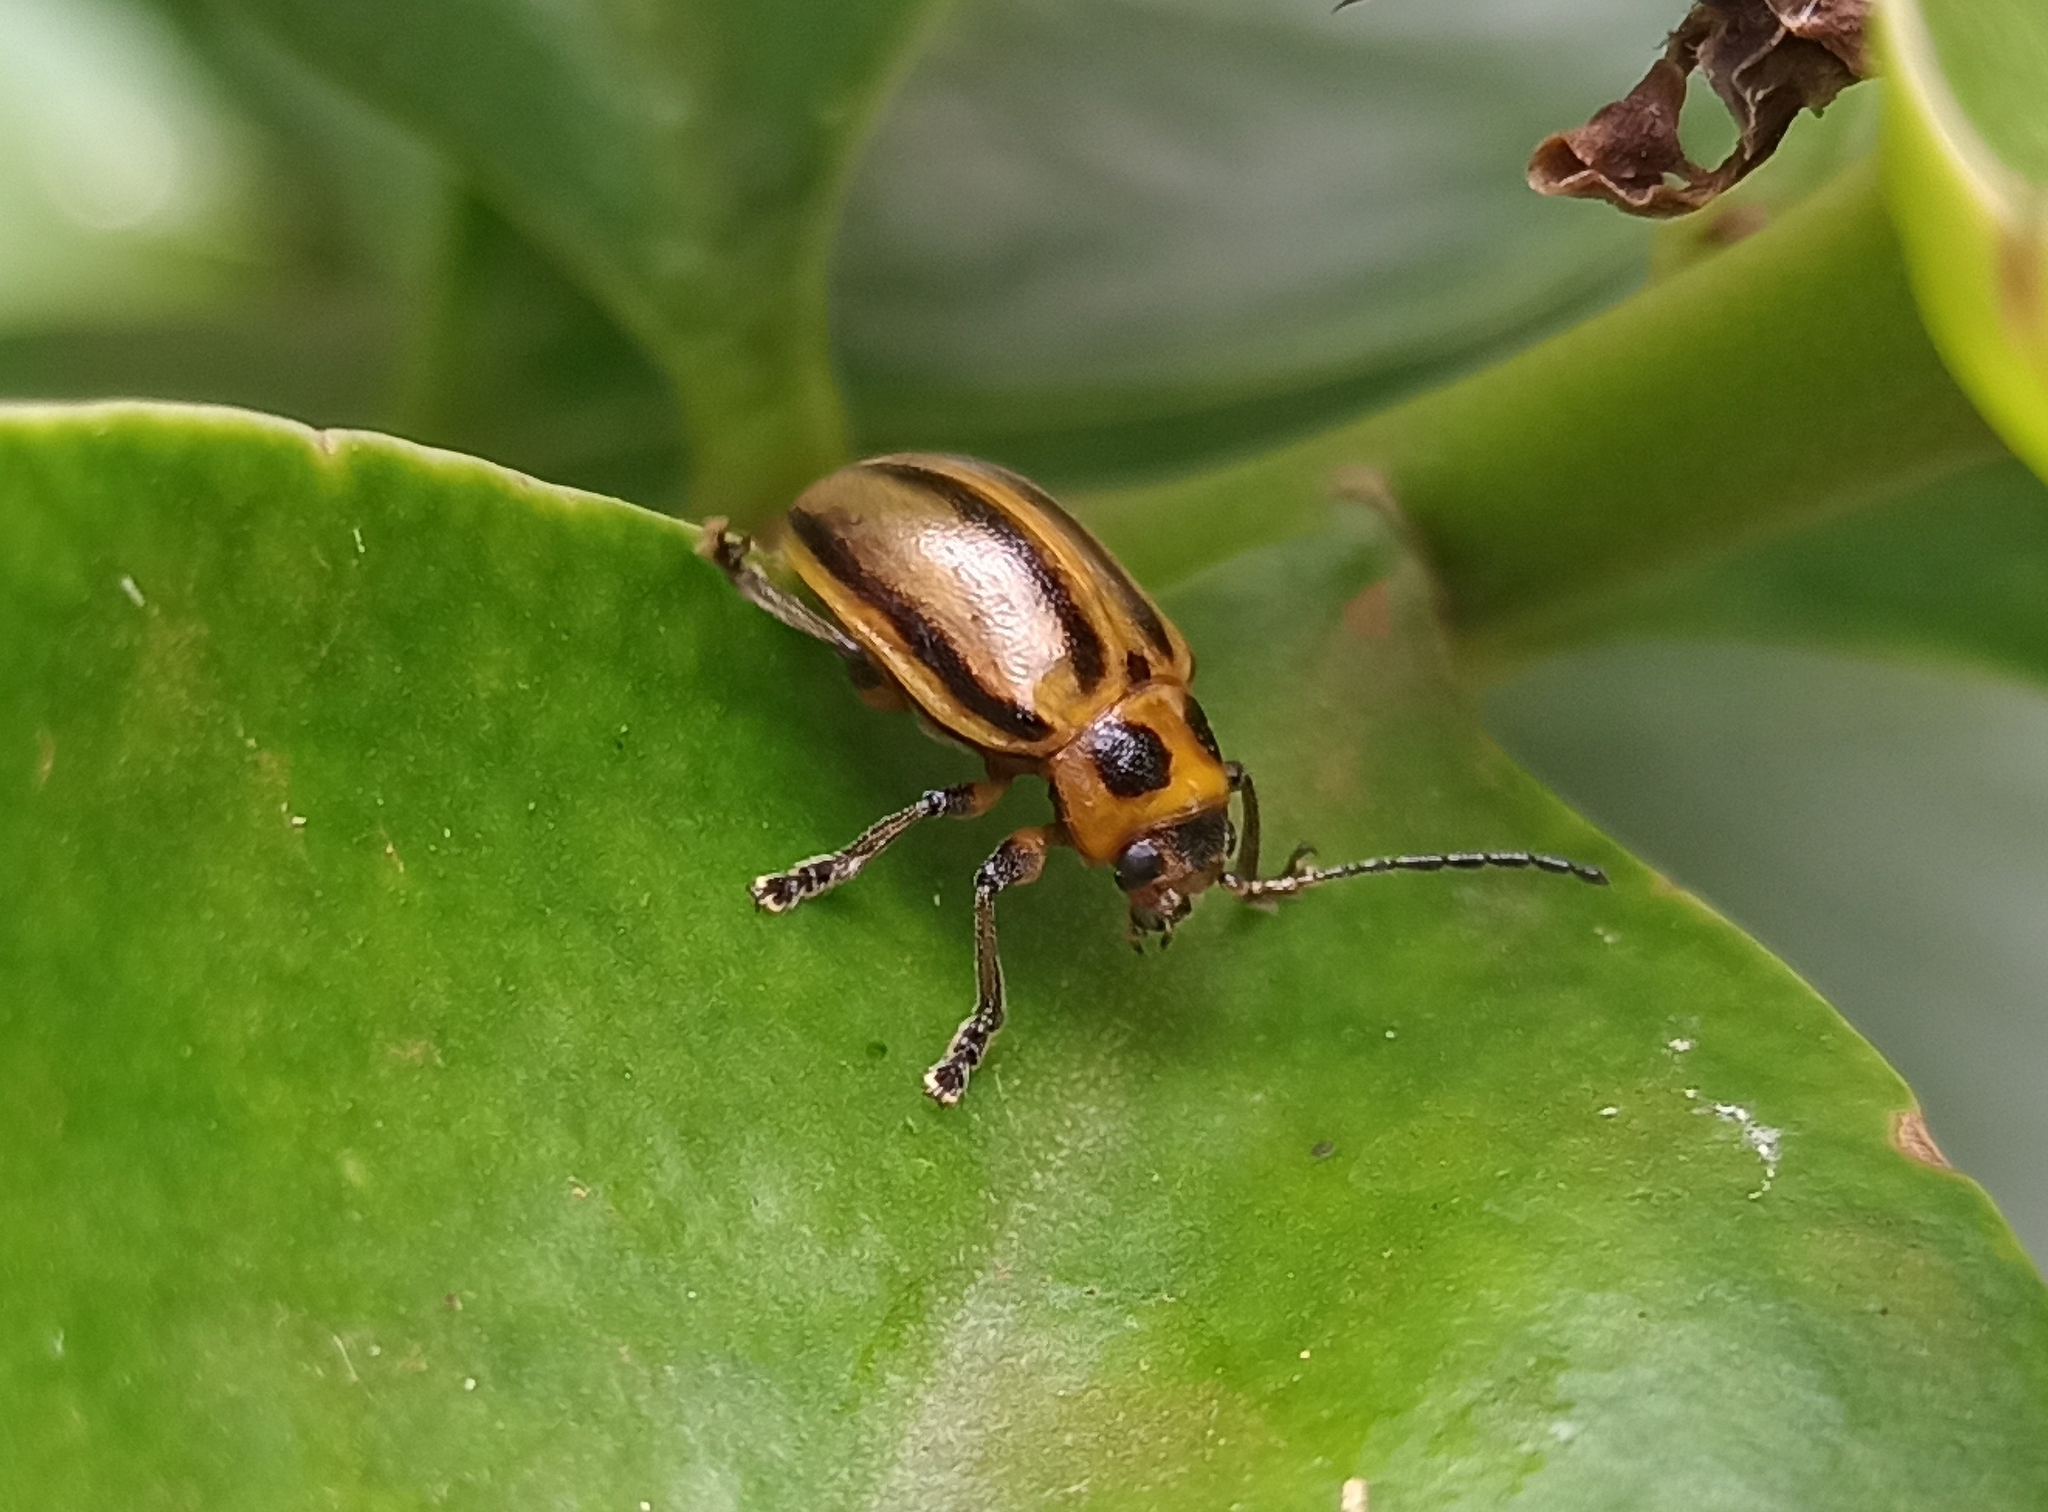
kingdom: Animalia
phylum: Arthropoda
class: Insecta
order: Coleoptera
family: Chrysomelidae
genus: Endocephalus
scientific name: Endocephalus
